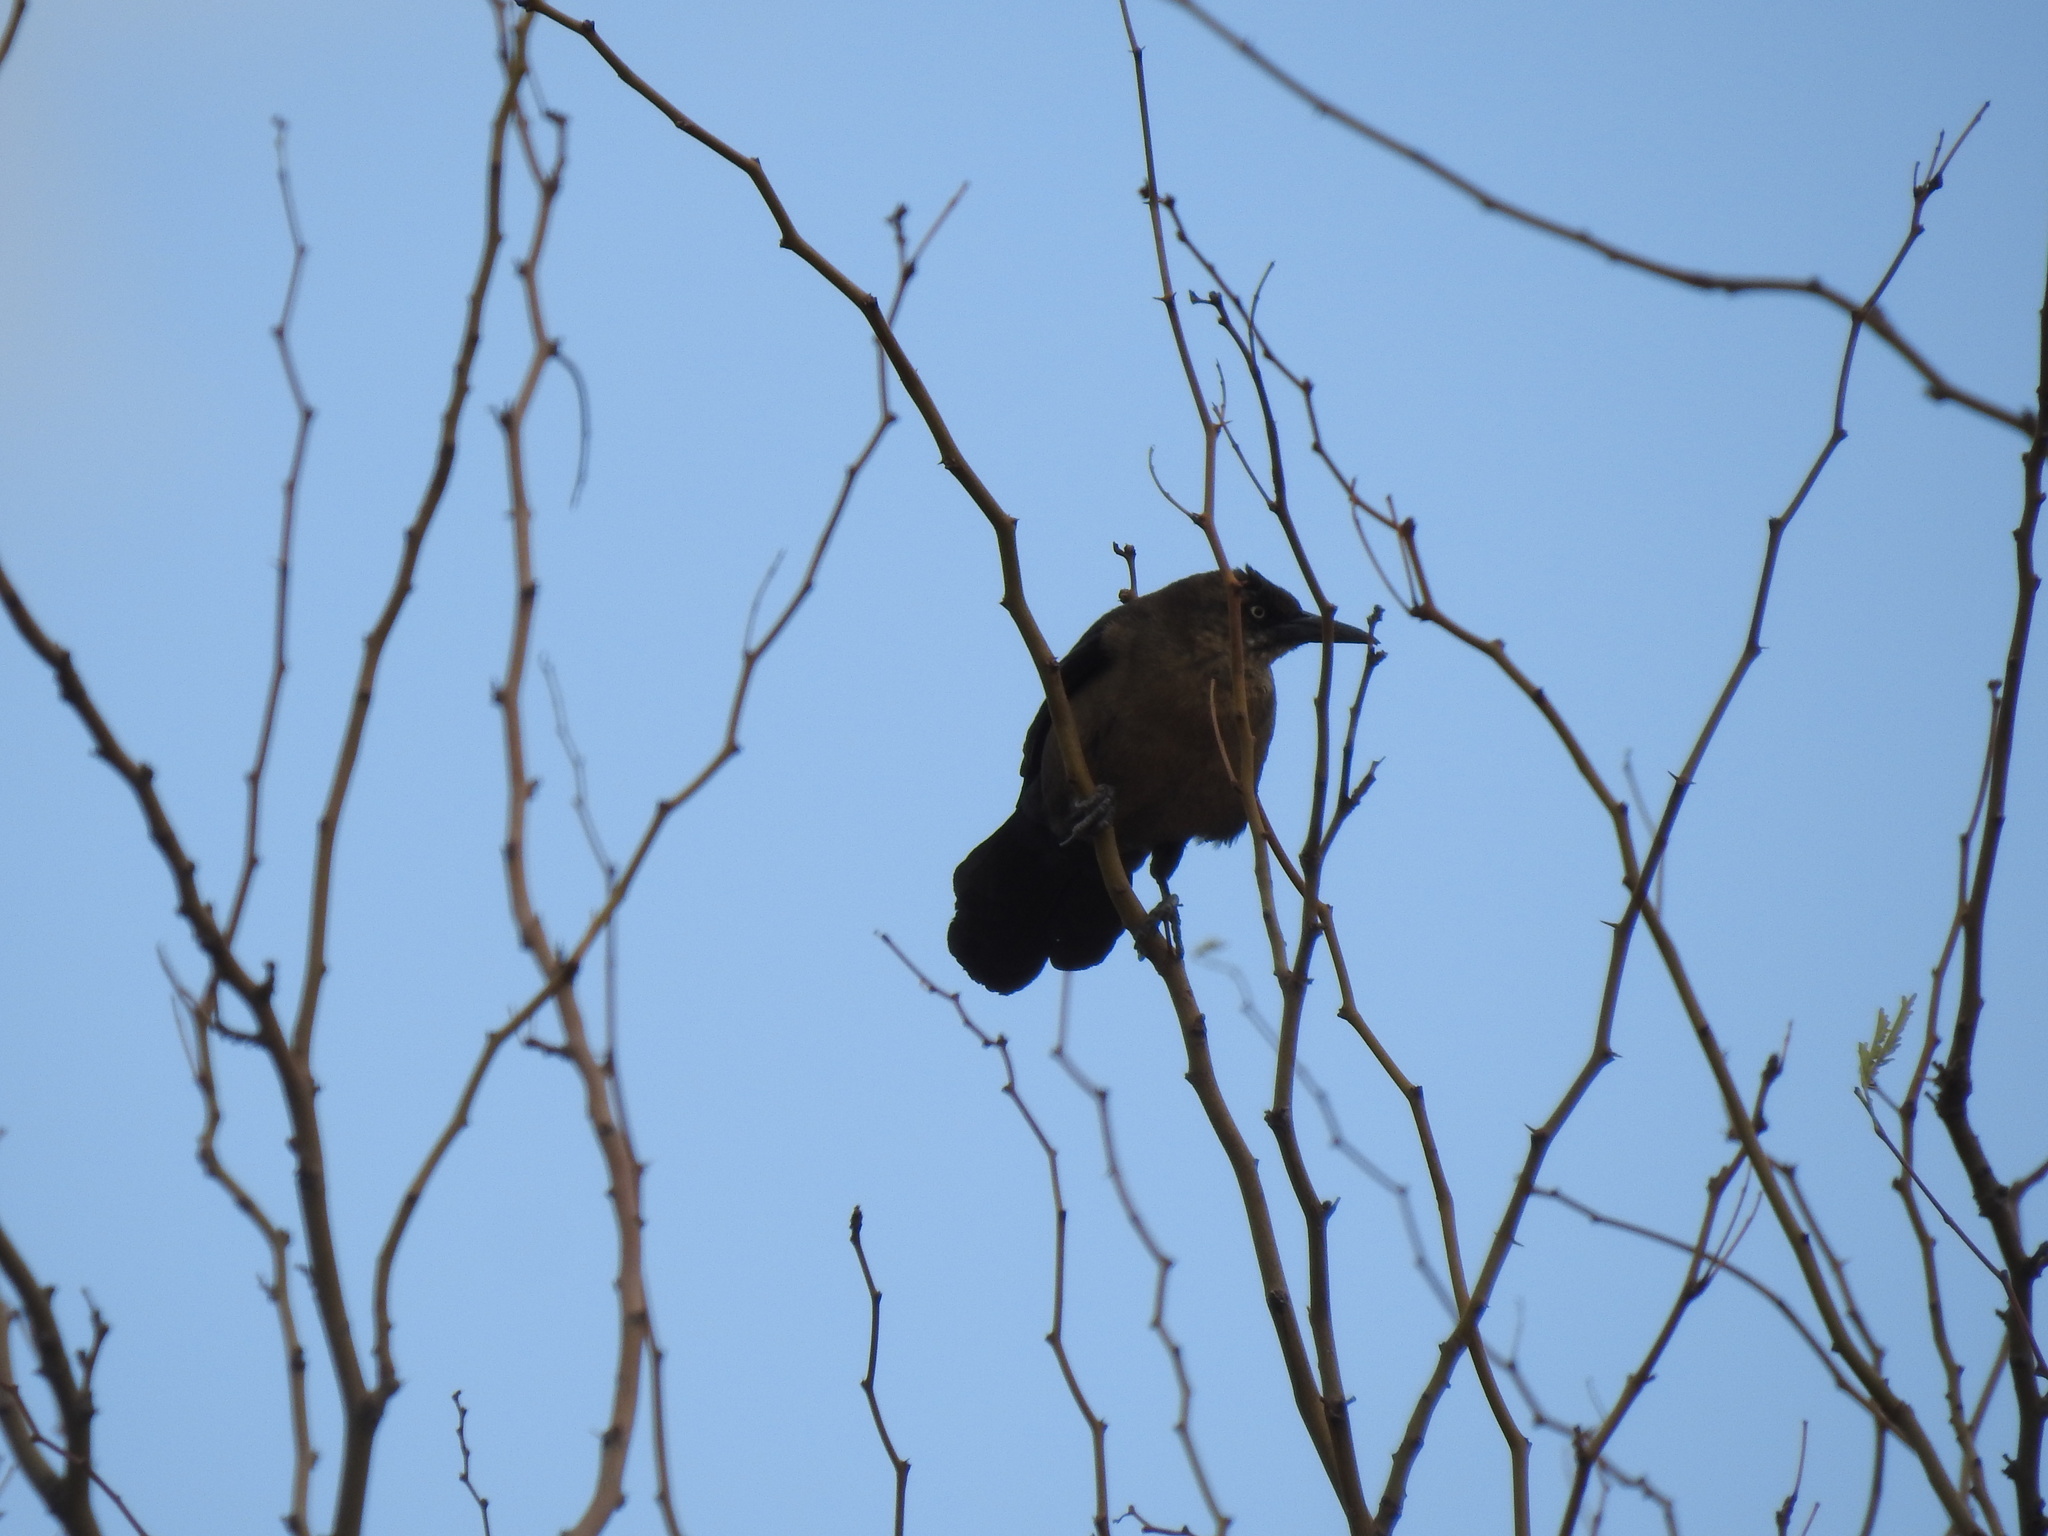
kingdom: Animalia
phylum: Chordata
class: Aves
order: Passeriformes
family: Icteridae
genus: Quiscalus
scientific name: Quiscalus mexicanus
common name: Great-tailed grackle
